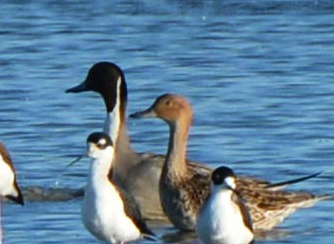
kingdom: Animalia
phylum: Chordata
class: Aves
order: Anseriformes
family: Anatidae
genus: Anas
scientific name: Anas acuta
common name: Northern pintail
